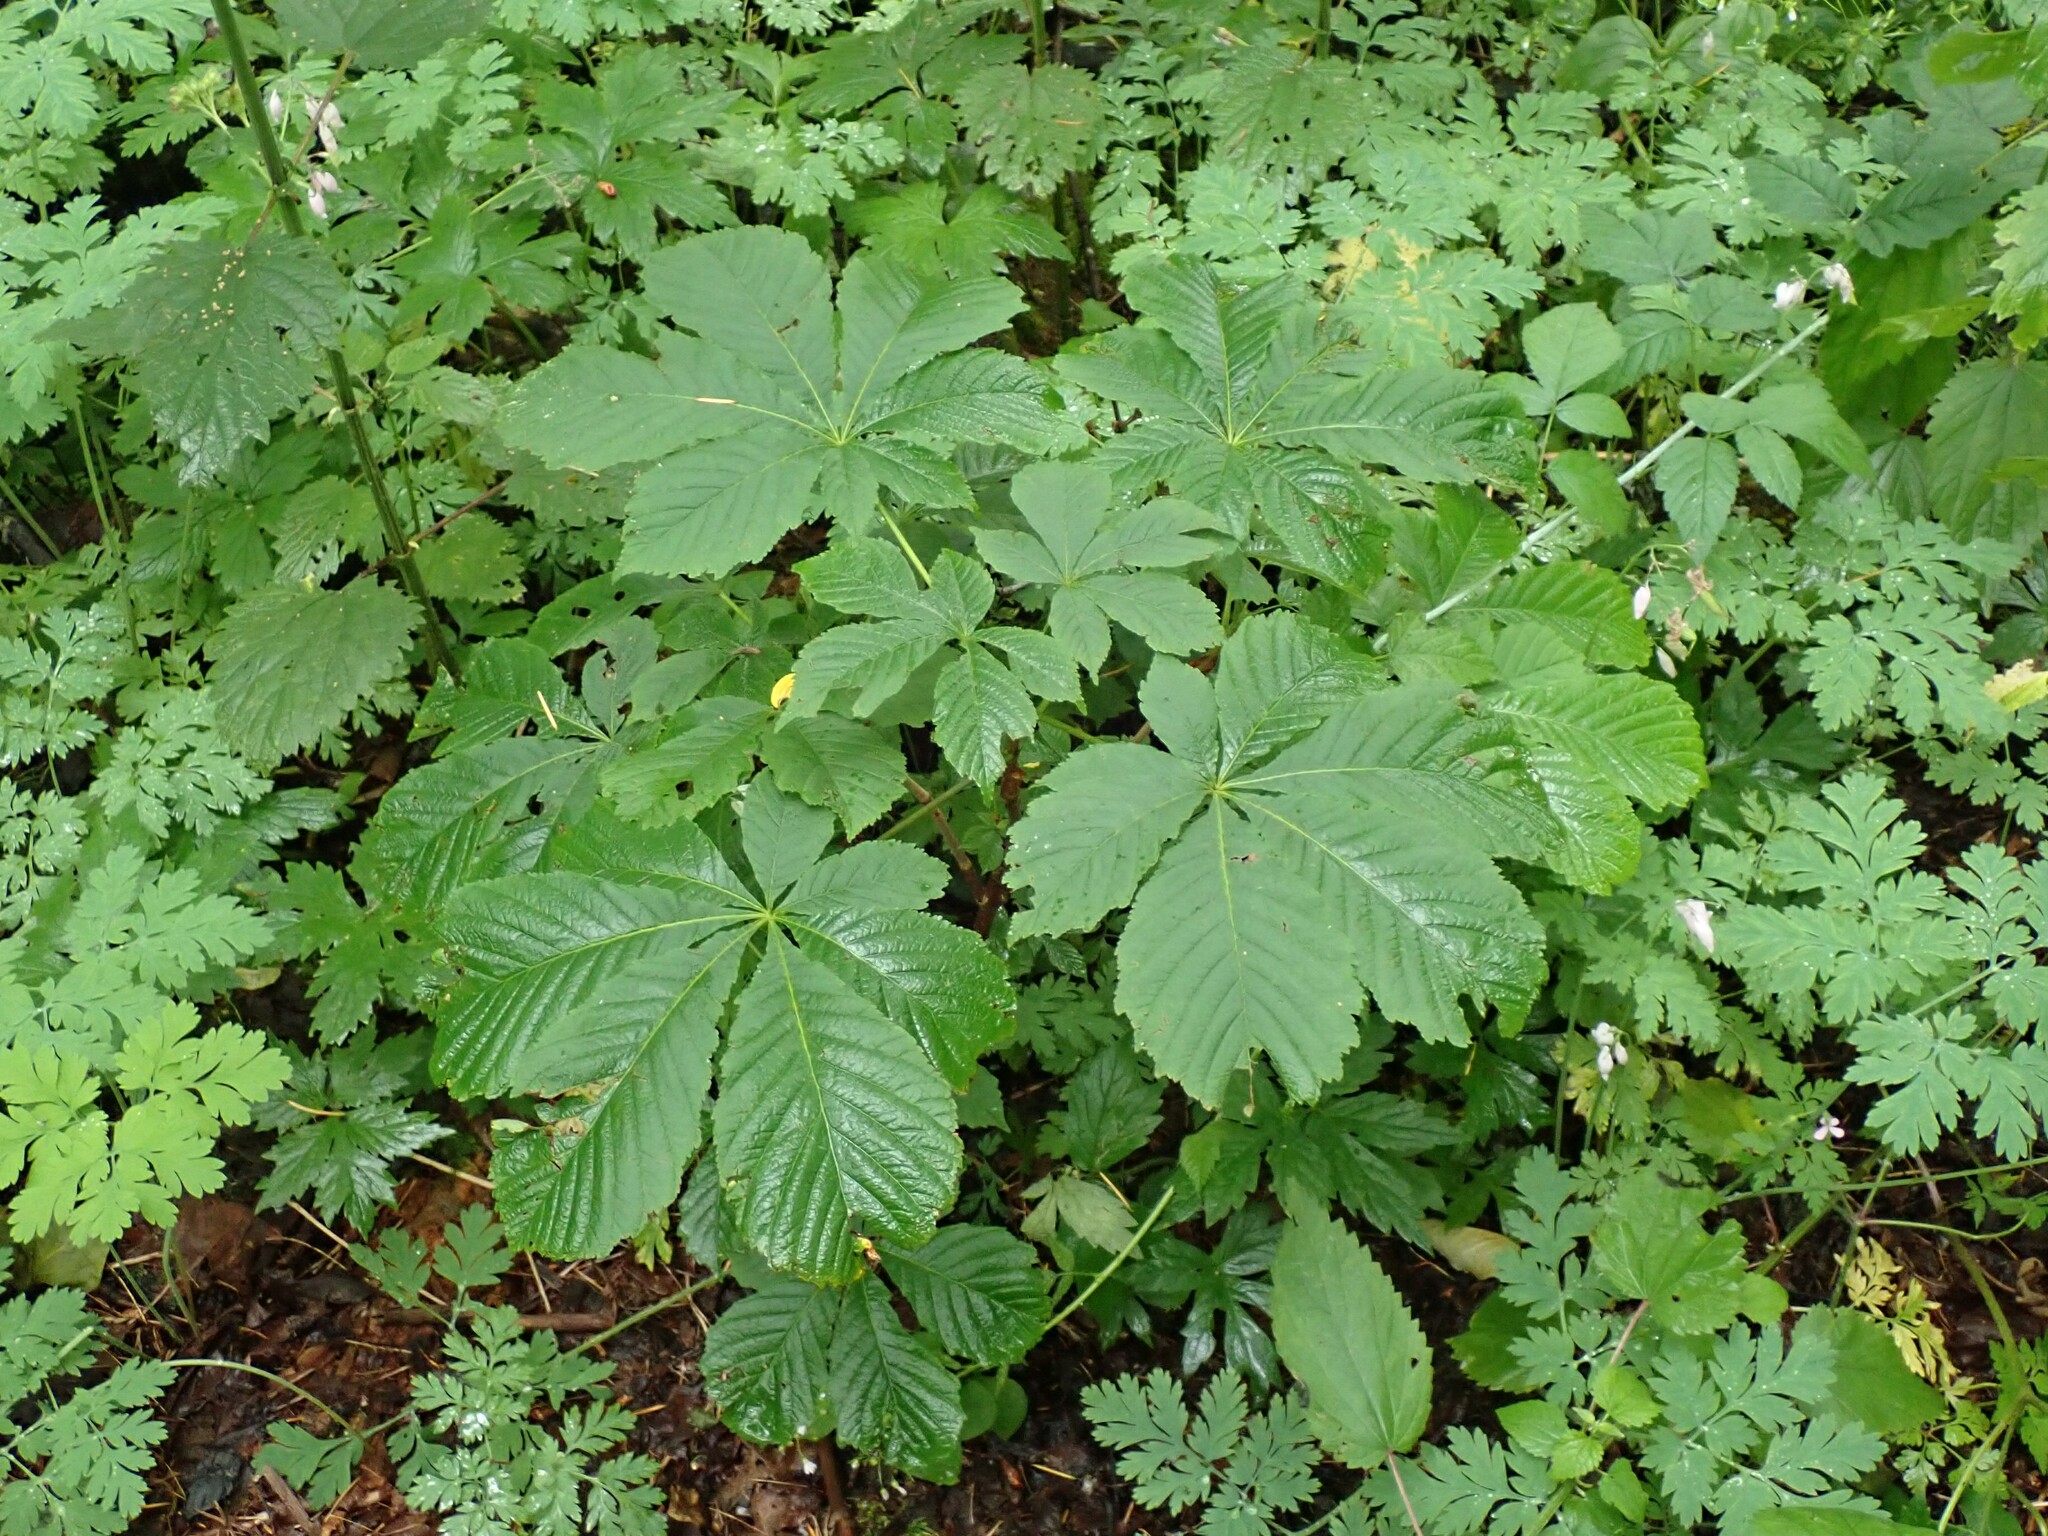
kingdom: Plantae
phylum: Tracheophyta
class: Magnoliopsida
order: Sapindales
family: Sapindaceae
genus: Aesculus
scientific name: Aesculus hippocastanum
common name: Horse-chestnut
